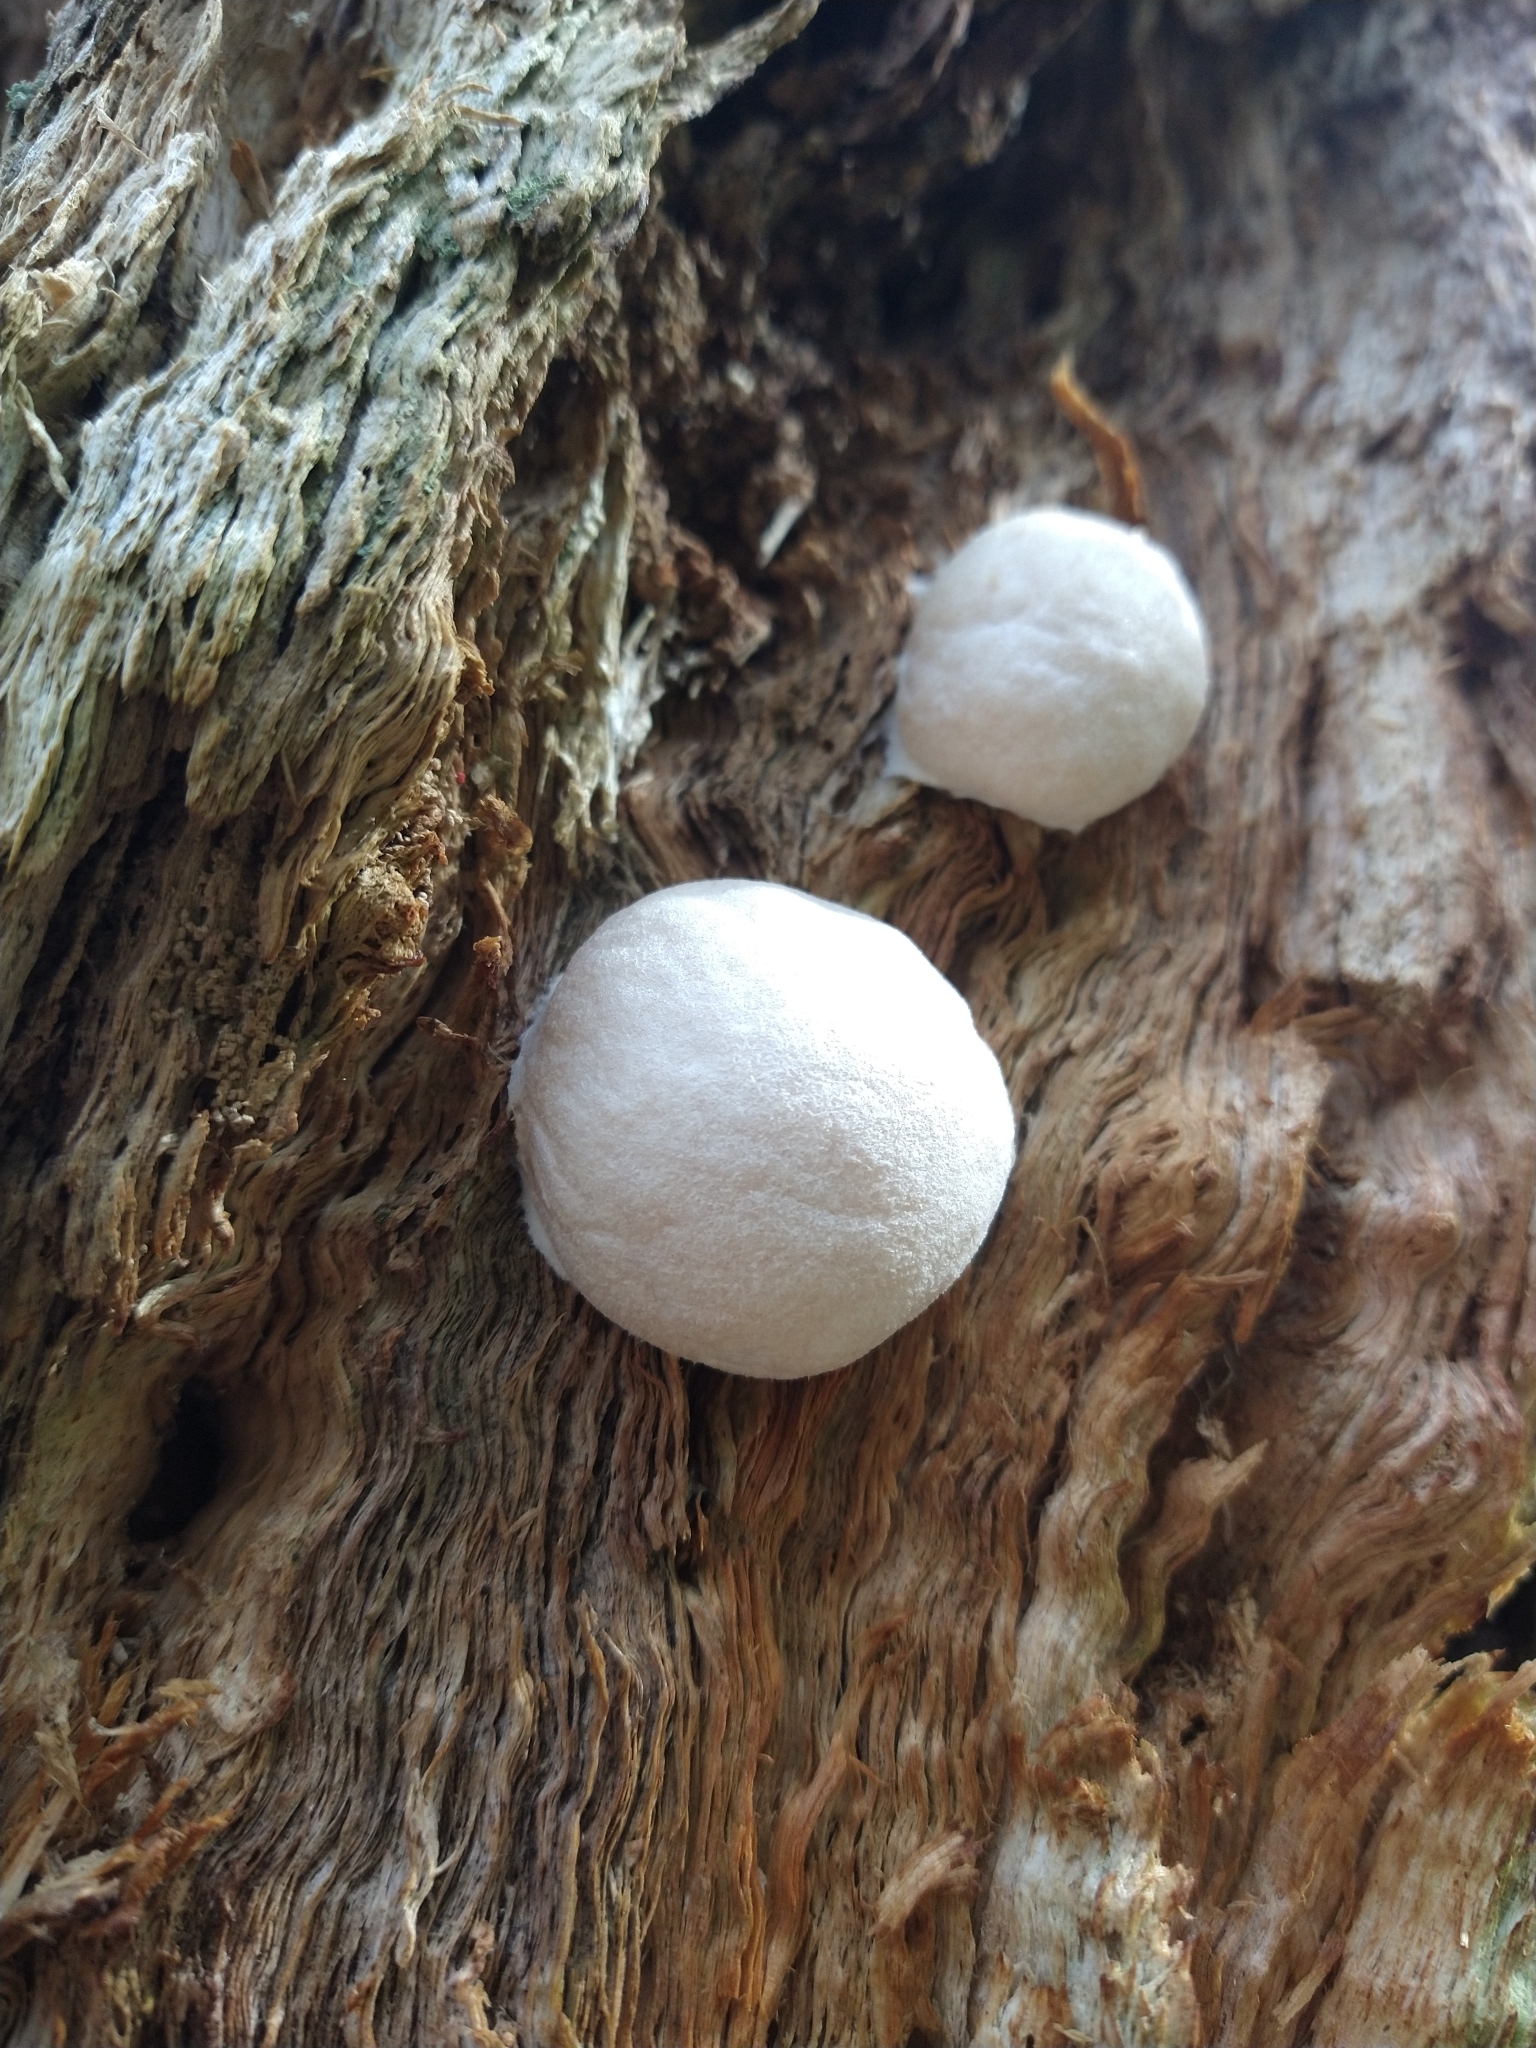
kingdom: Protozoa
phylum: Mycetozoa
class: Myxomycetes
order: Cribrariales
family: Tubiferaceae
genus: Reticularia
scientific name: Reticularia lycoperdon
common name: False puffball
